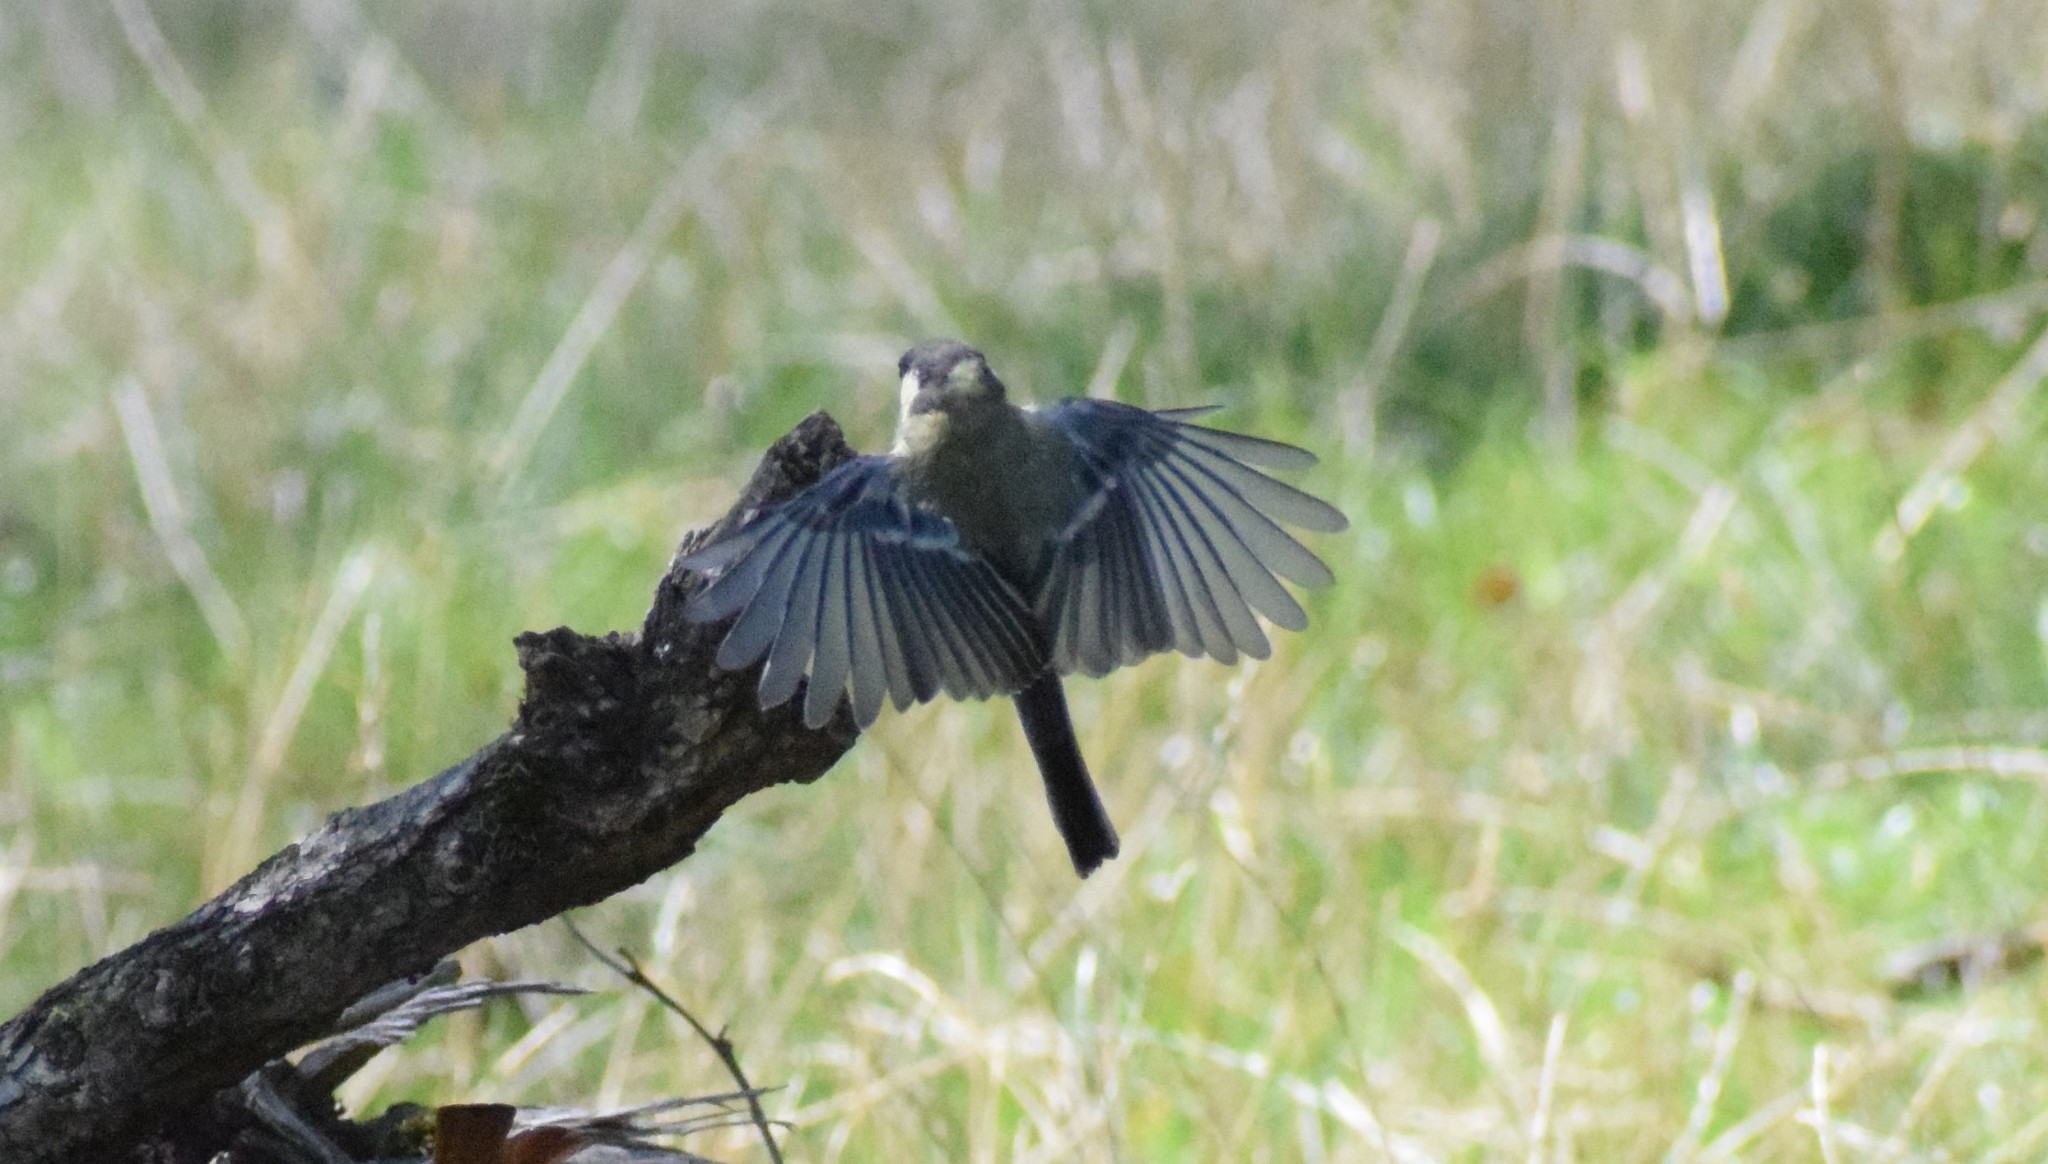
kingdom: Animalia
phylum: Chordata
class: Aves
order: Passeriformes
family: Paridae
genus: Parus
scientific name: Parus major
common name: Great tit
